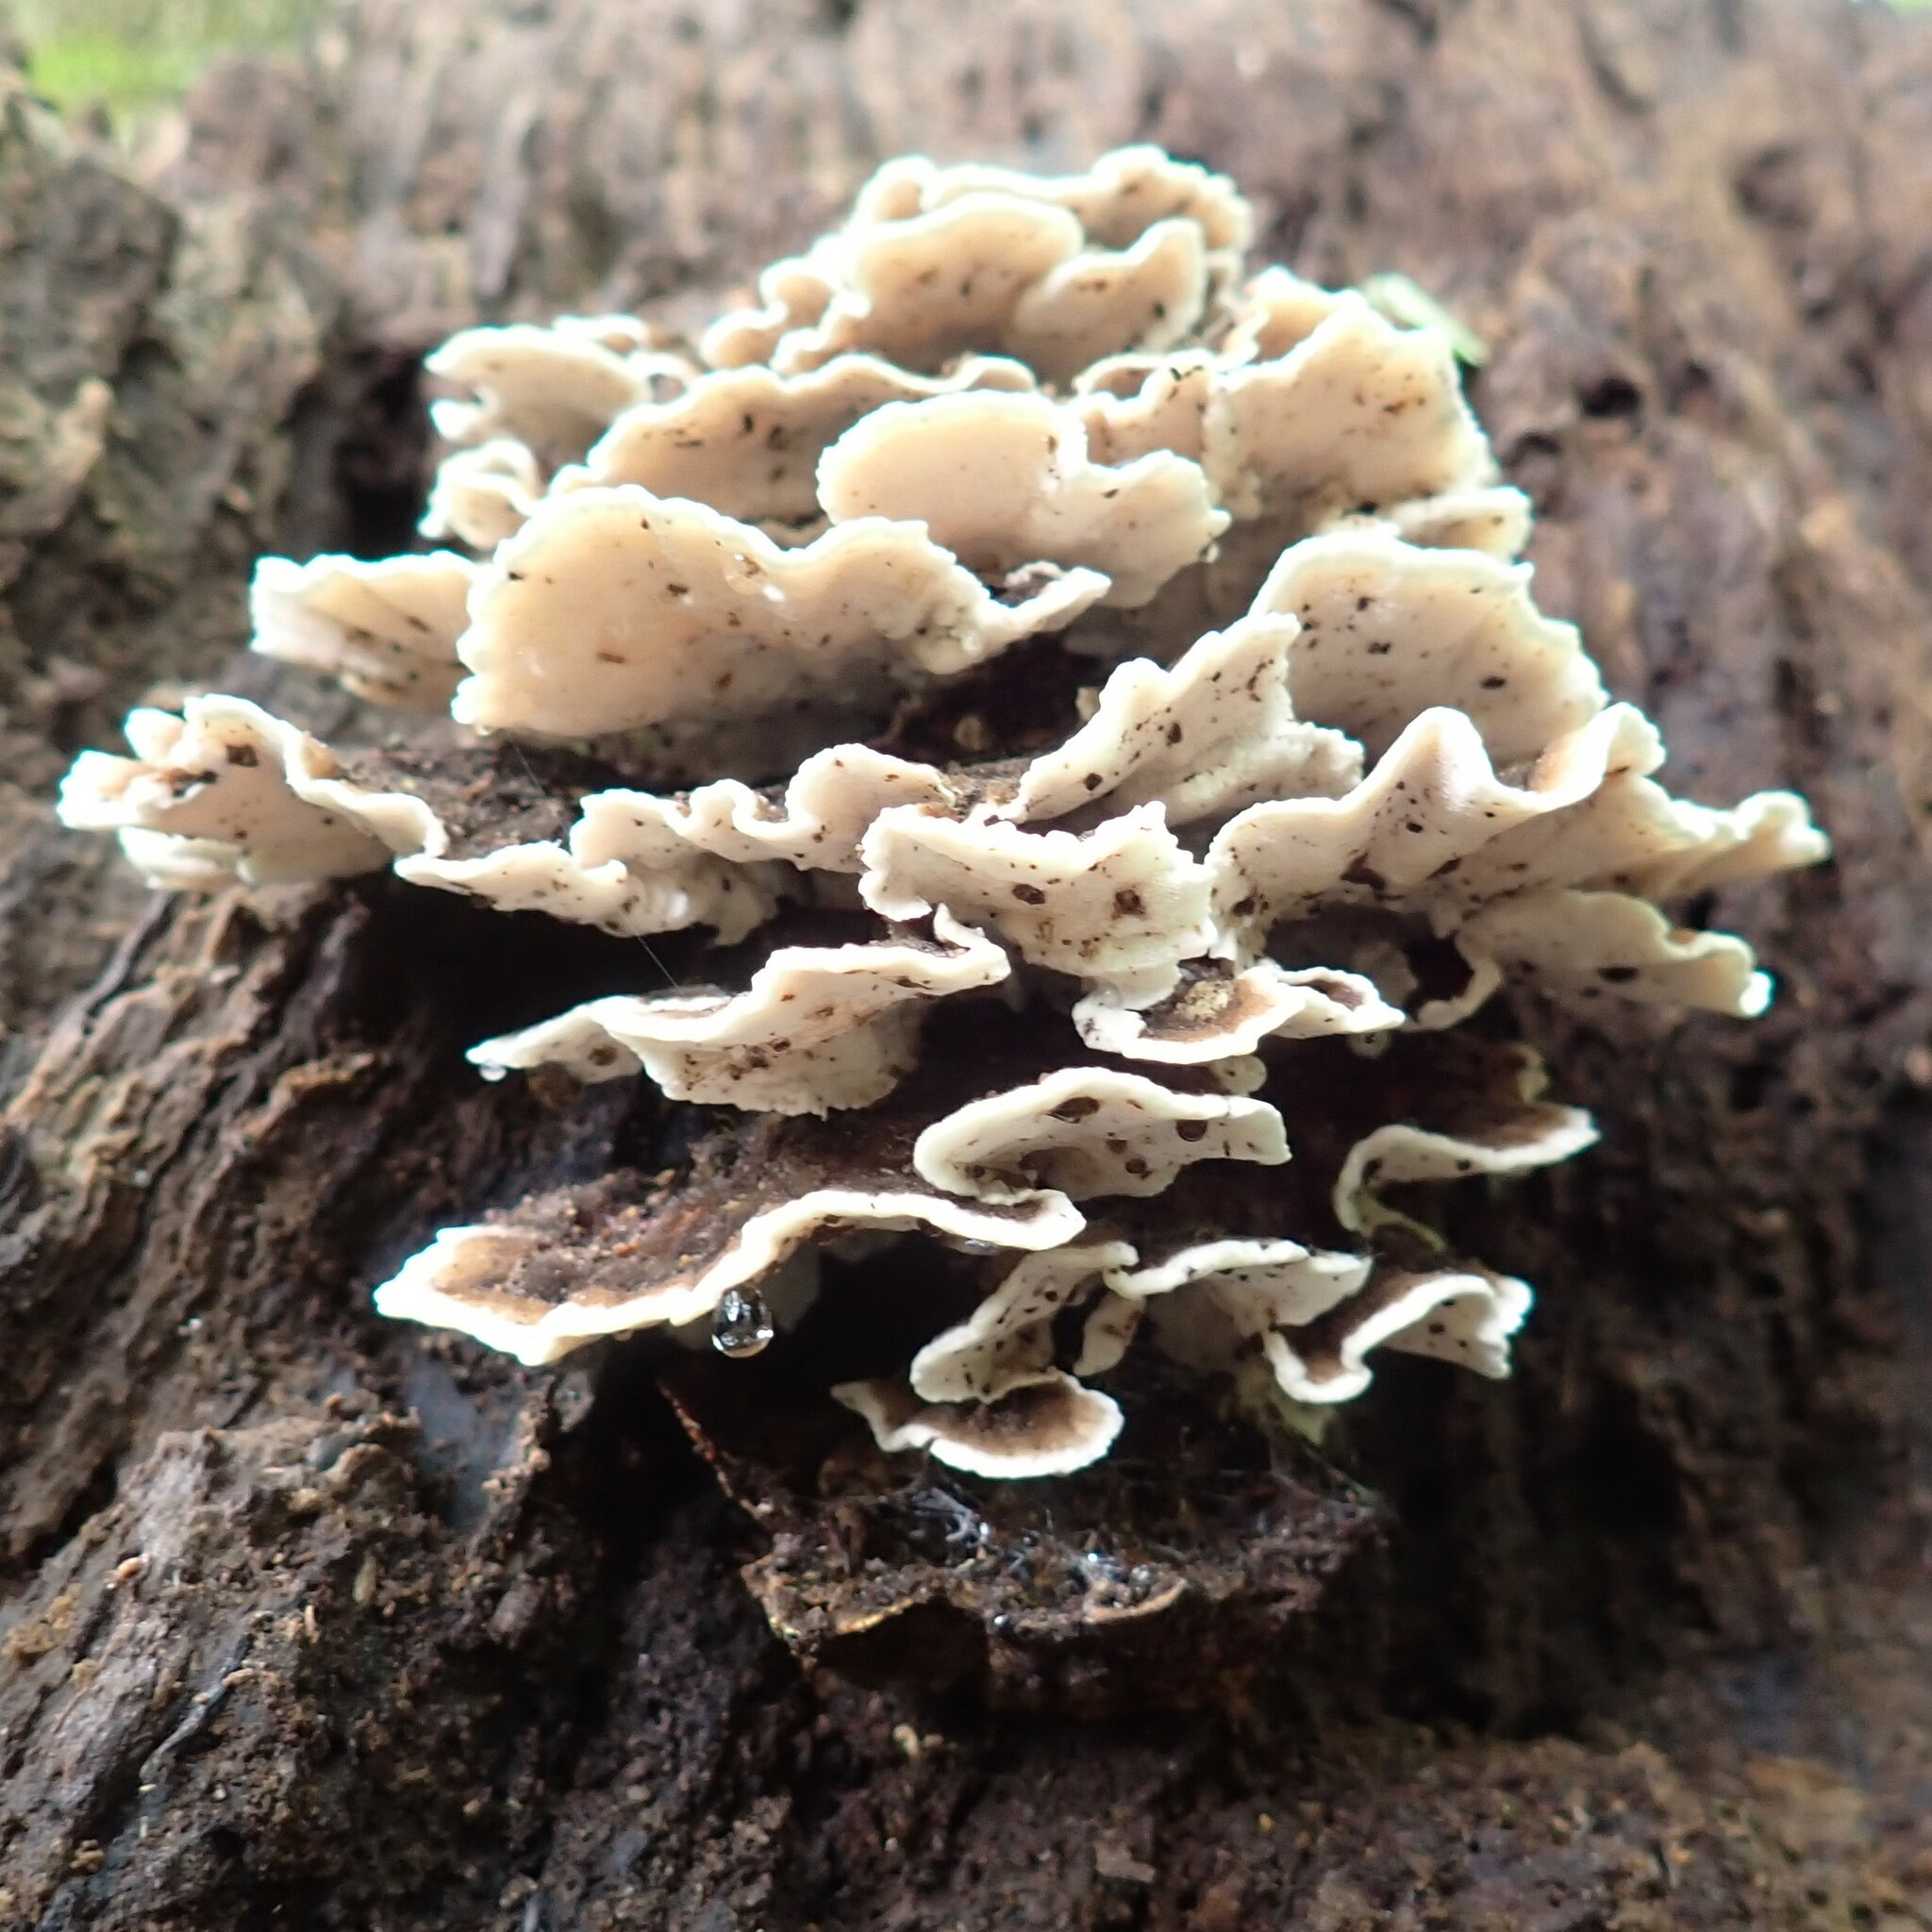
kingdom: Fungi
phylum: Basidiomycota
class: Agaricomycetes
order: Polyporales
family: Polyporaceae
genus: Trametes
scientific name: Trametes versicolor
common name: Turkeytail
